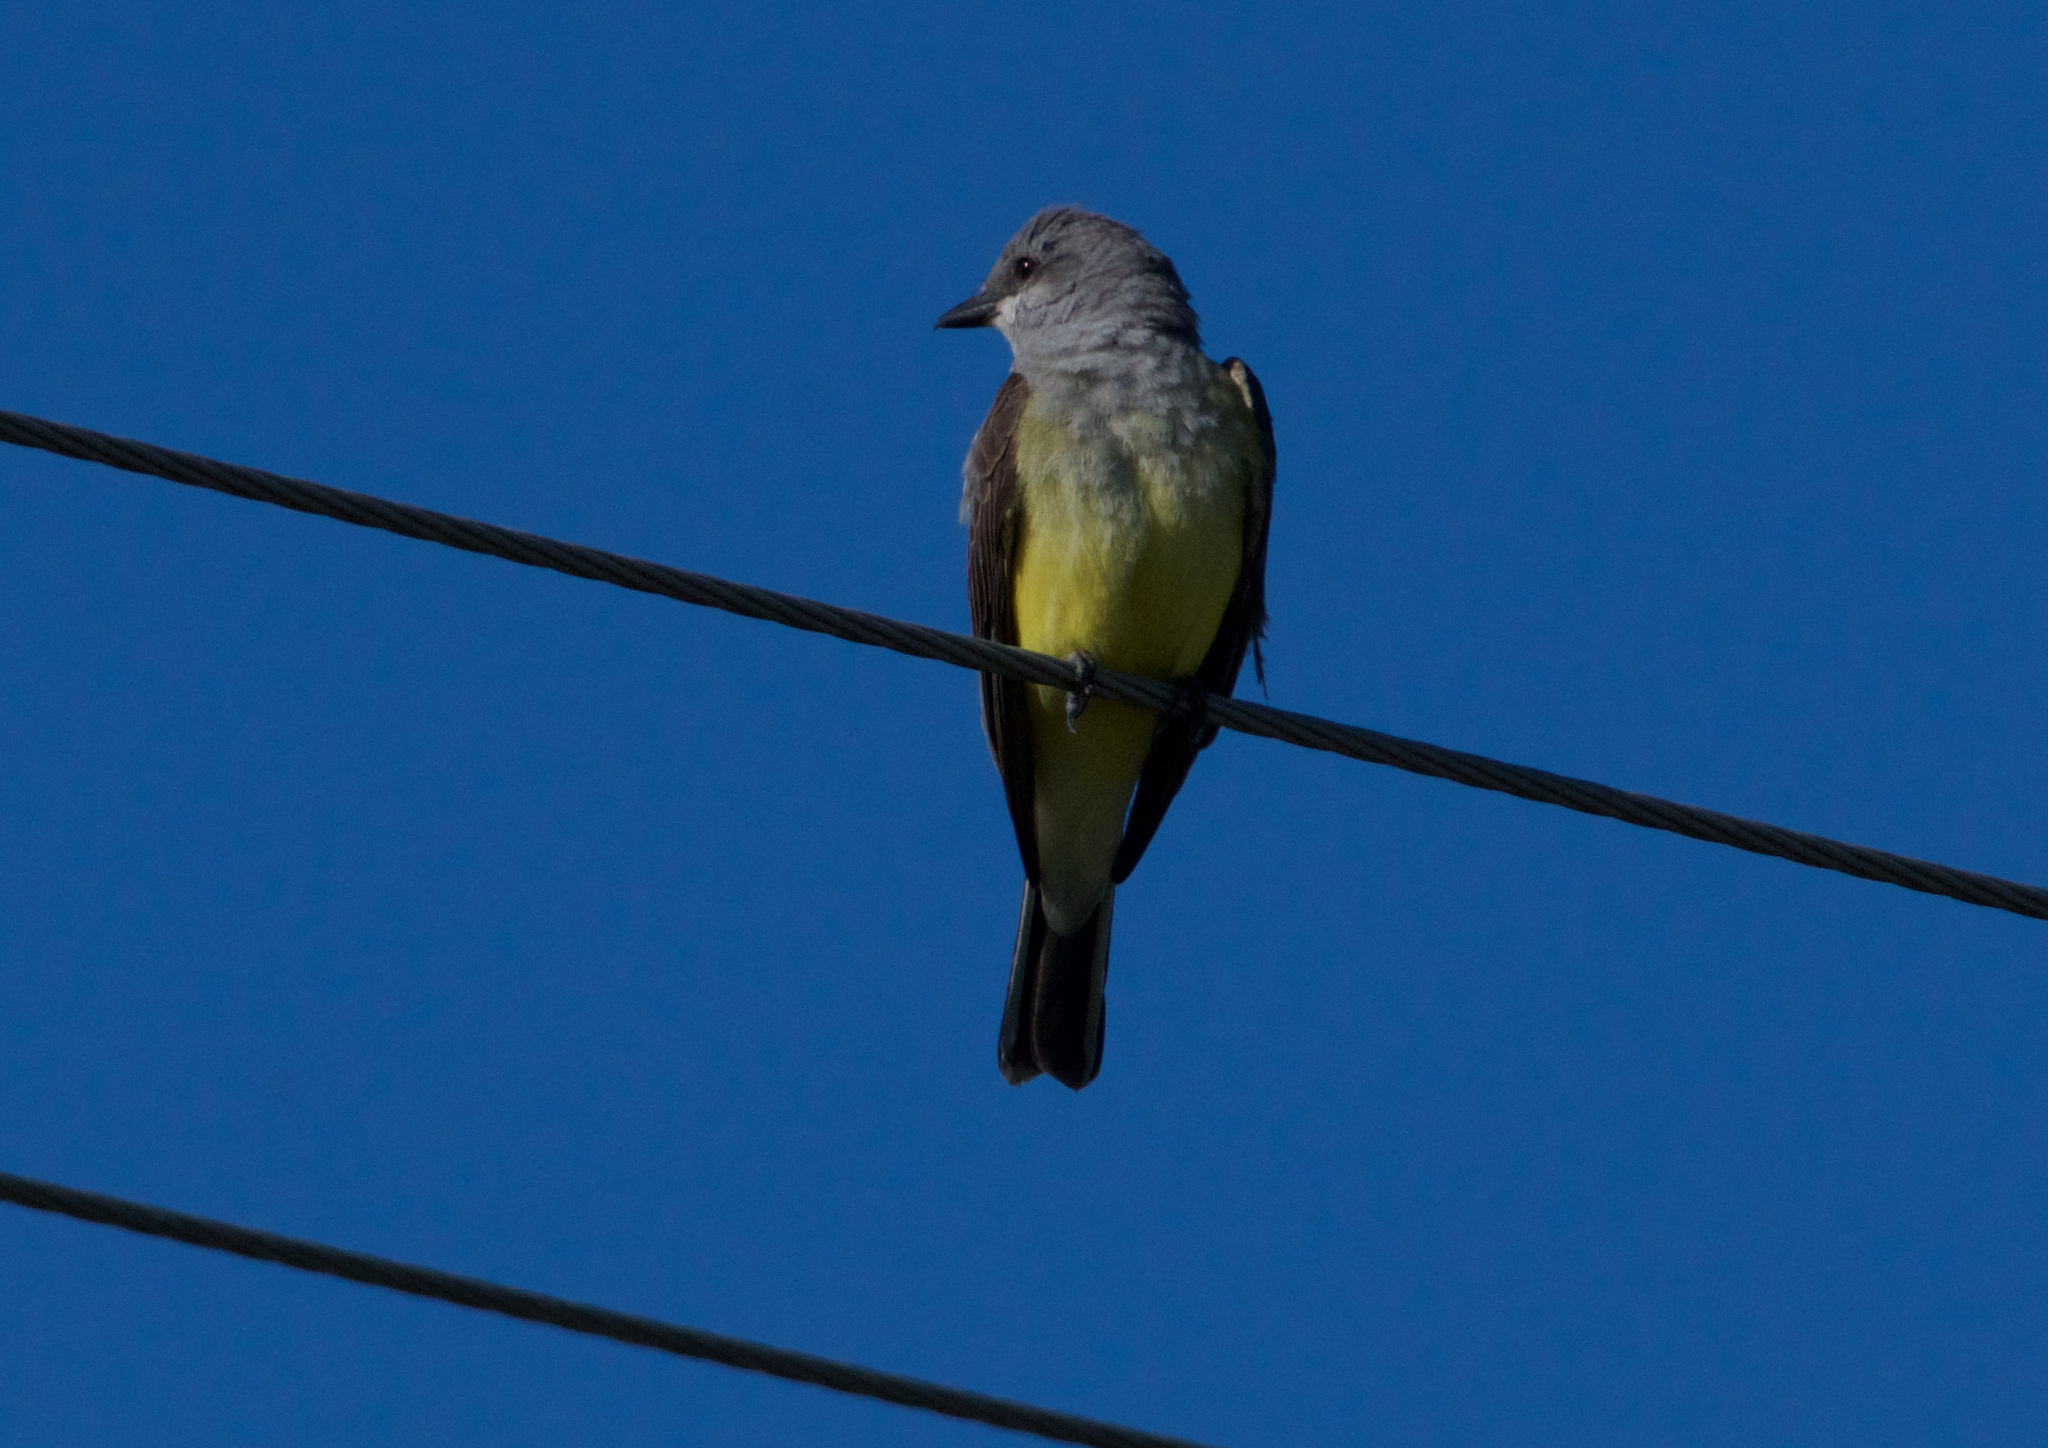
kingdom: Animalia
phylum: Chordata
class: Aves
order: Passeriformes
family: Tyrannidae
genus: Tyrannus
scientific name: Tyrannus verticalis
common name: Western kingbird
